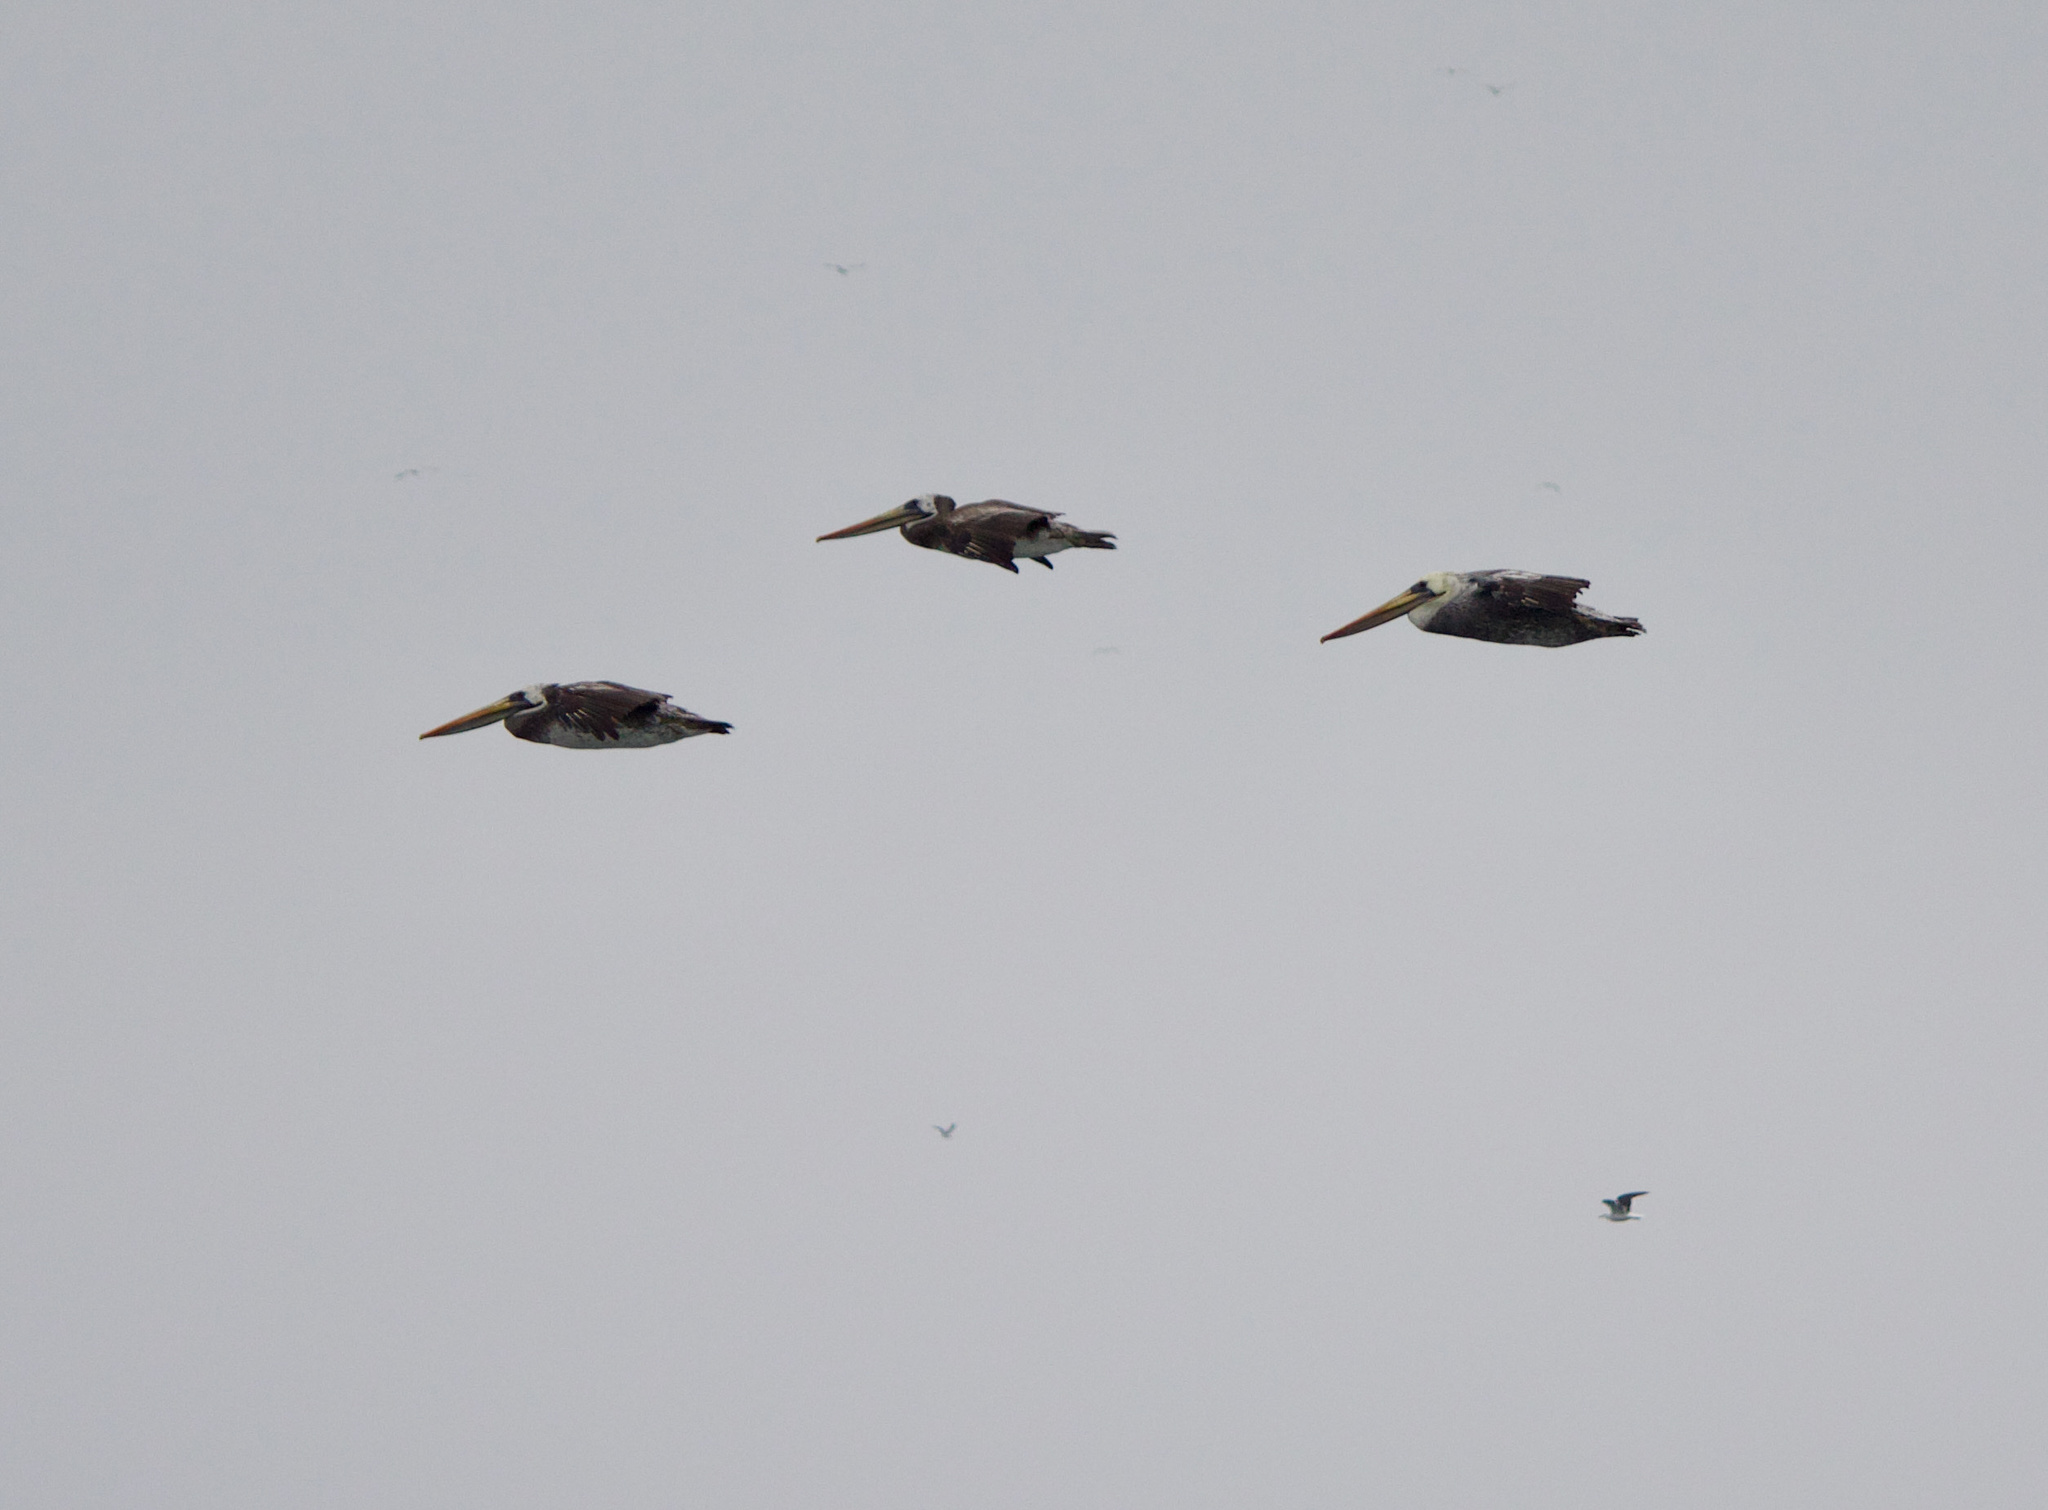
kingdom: Animalia
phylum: Chordata
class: Aves
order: Pelecaniformes
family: Pelecanidae
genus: Pelecanus
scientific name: Pelecanus thagus
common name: Peruvian pelican
